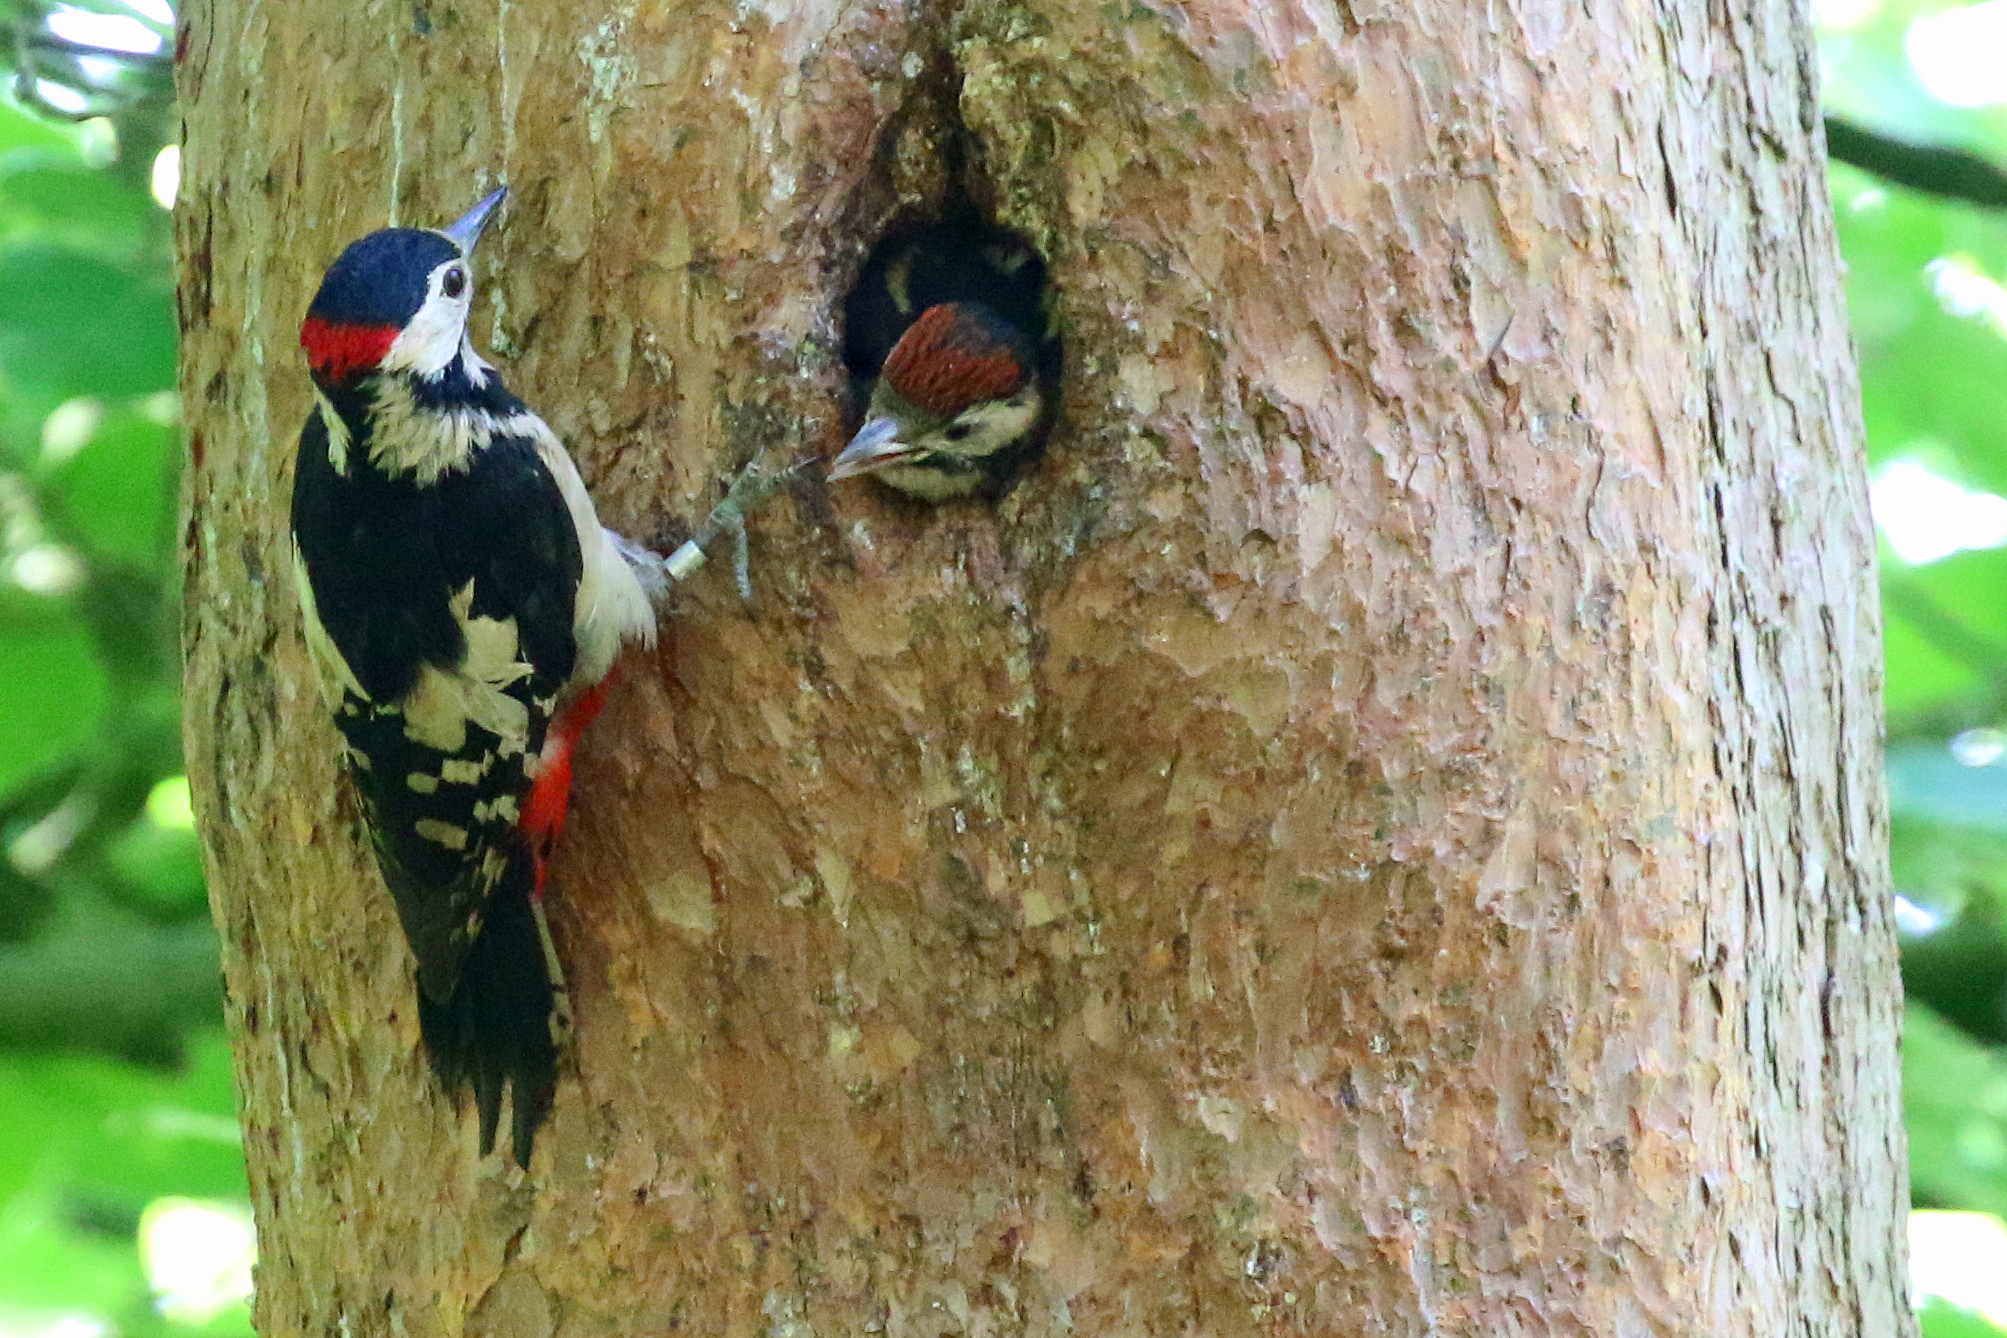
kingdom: Animalia
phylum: Chordata
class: Aves
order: Piciformes
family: Picidae
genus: Dendrocopos
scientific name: Dendrocopos major
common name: Great spotted woodpecker
